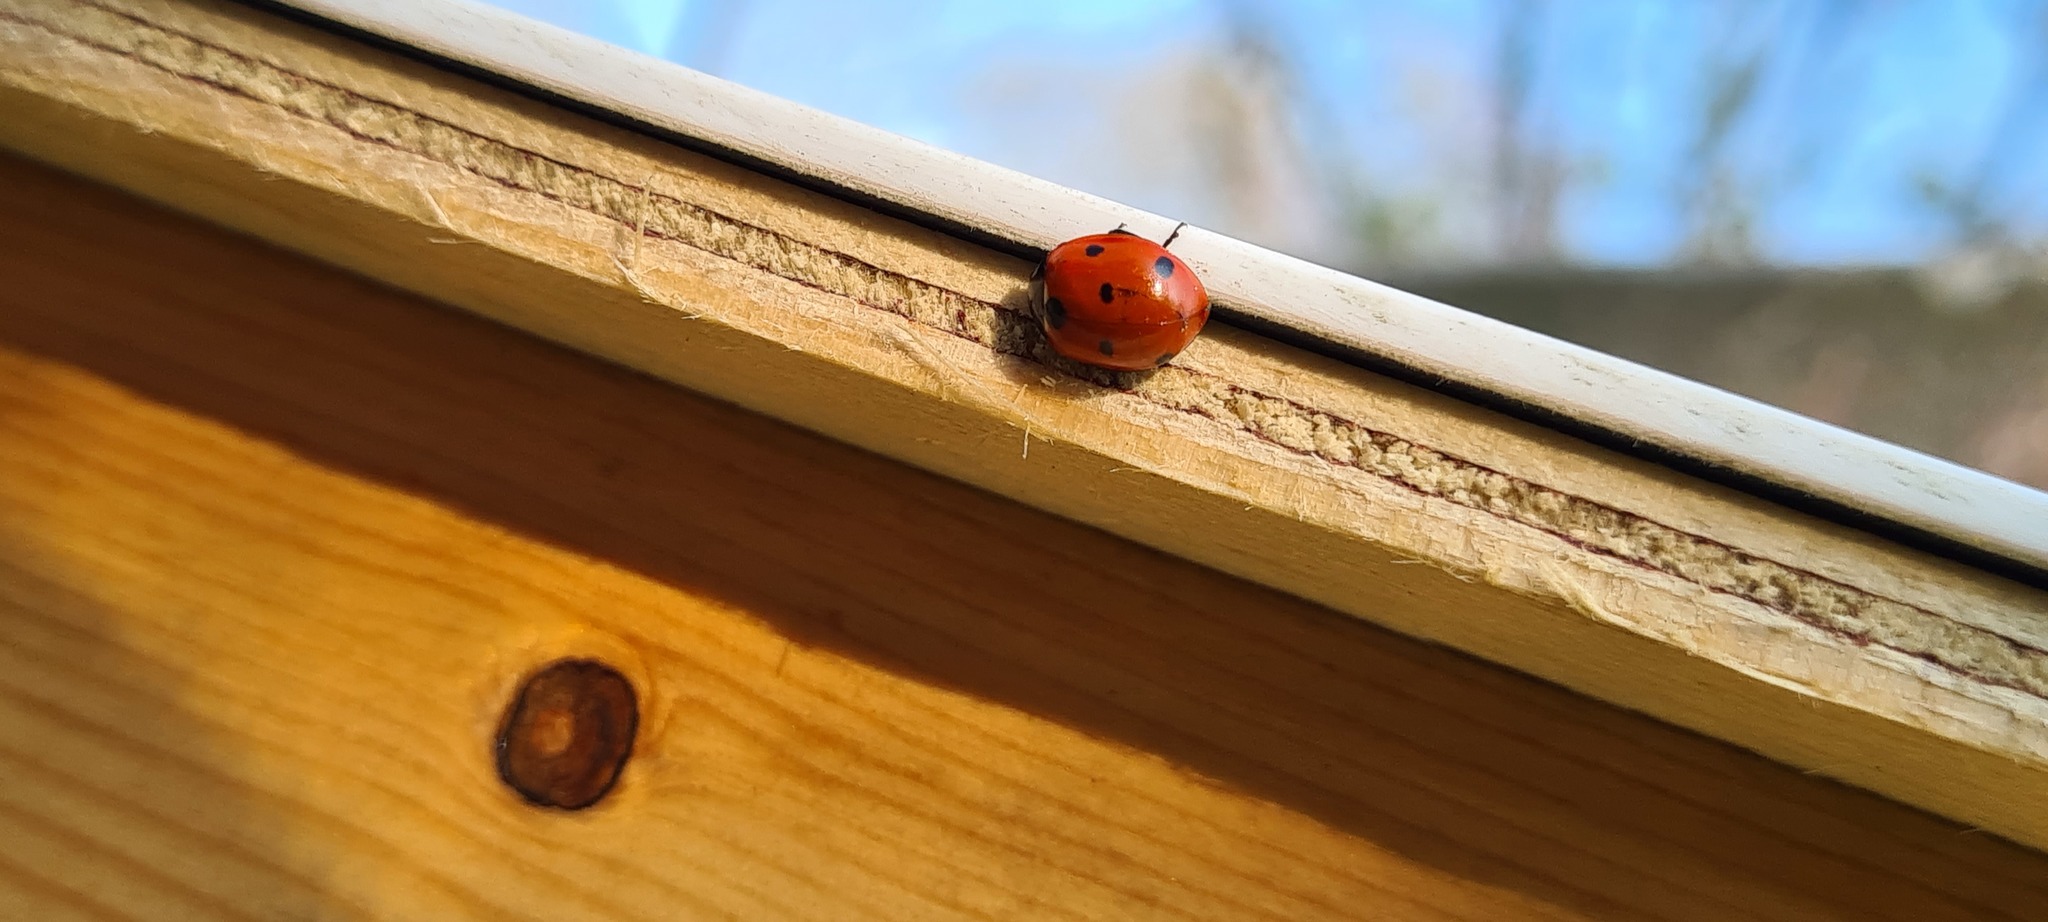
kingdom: Animalia
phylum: Arthropoda
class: Insecta
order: Coleoptera
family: Coccinellidae
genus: Coccinella
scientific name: Coccinella septempunctata
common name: Sevenspotted lady beetle
